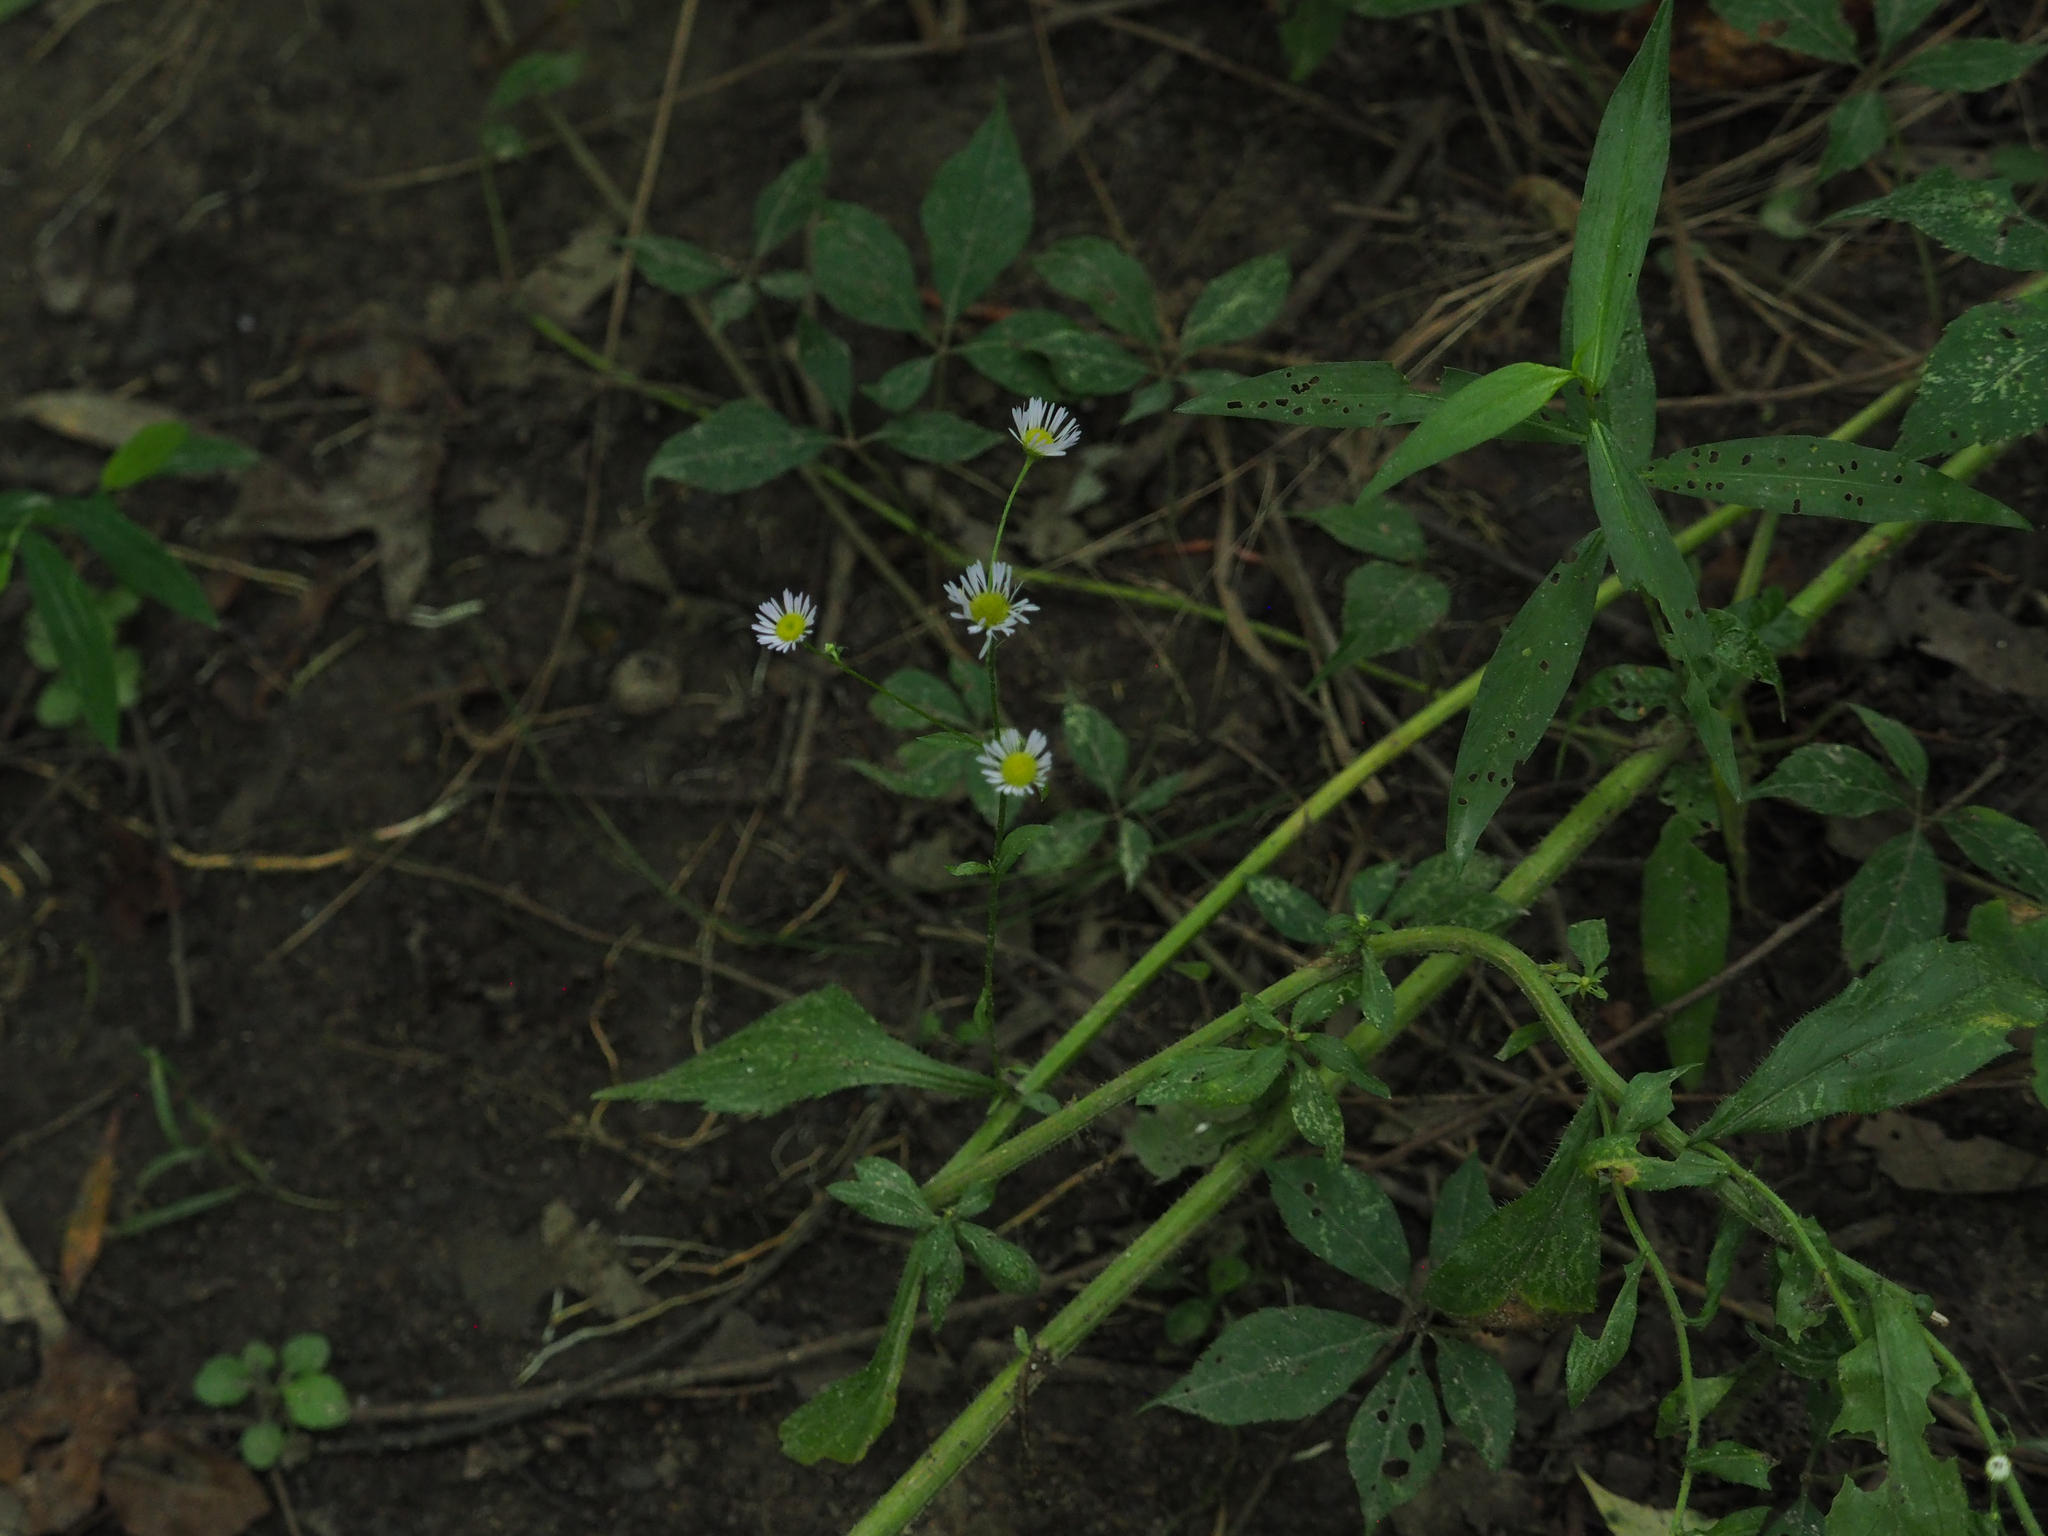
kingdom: Plantae
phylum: Tracheophyta
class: Magnoliopsida
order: Asterales
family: Asteraceae
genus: Erigeron
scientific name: Erigeron strigosus
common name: Common eastern fleabane
